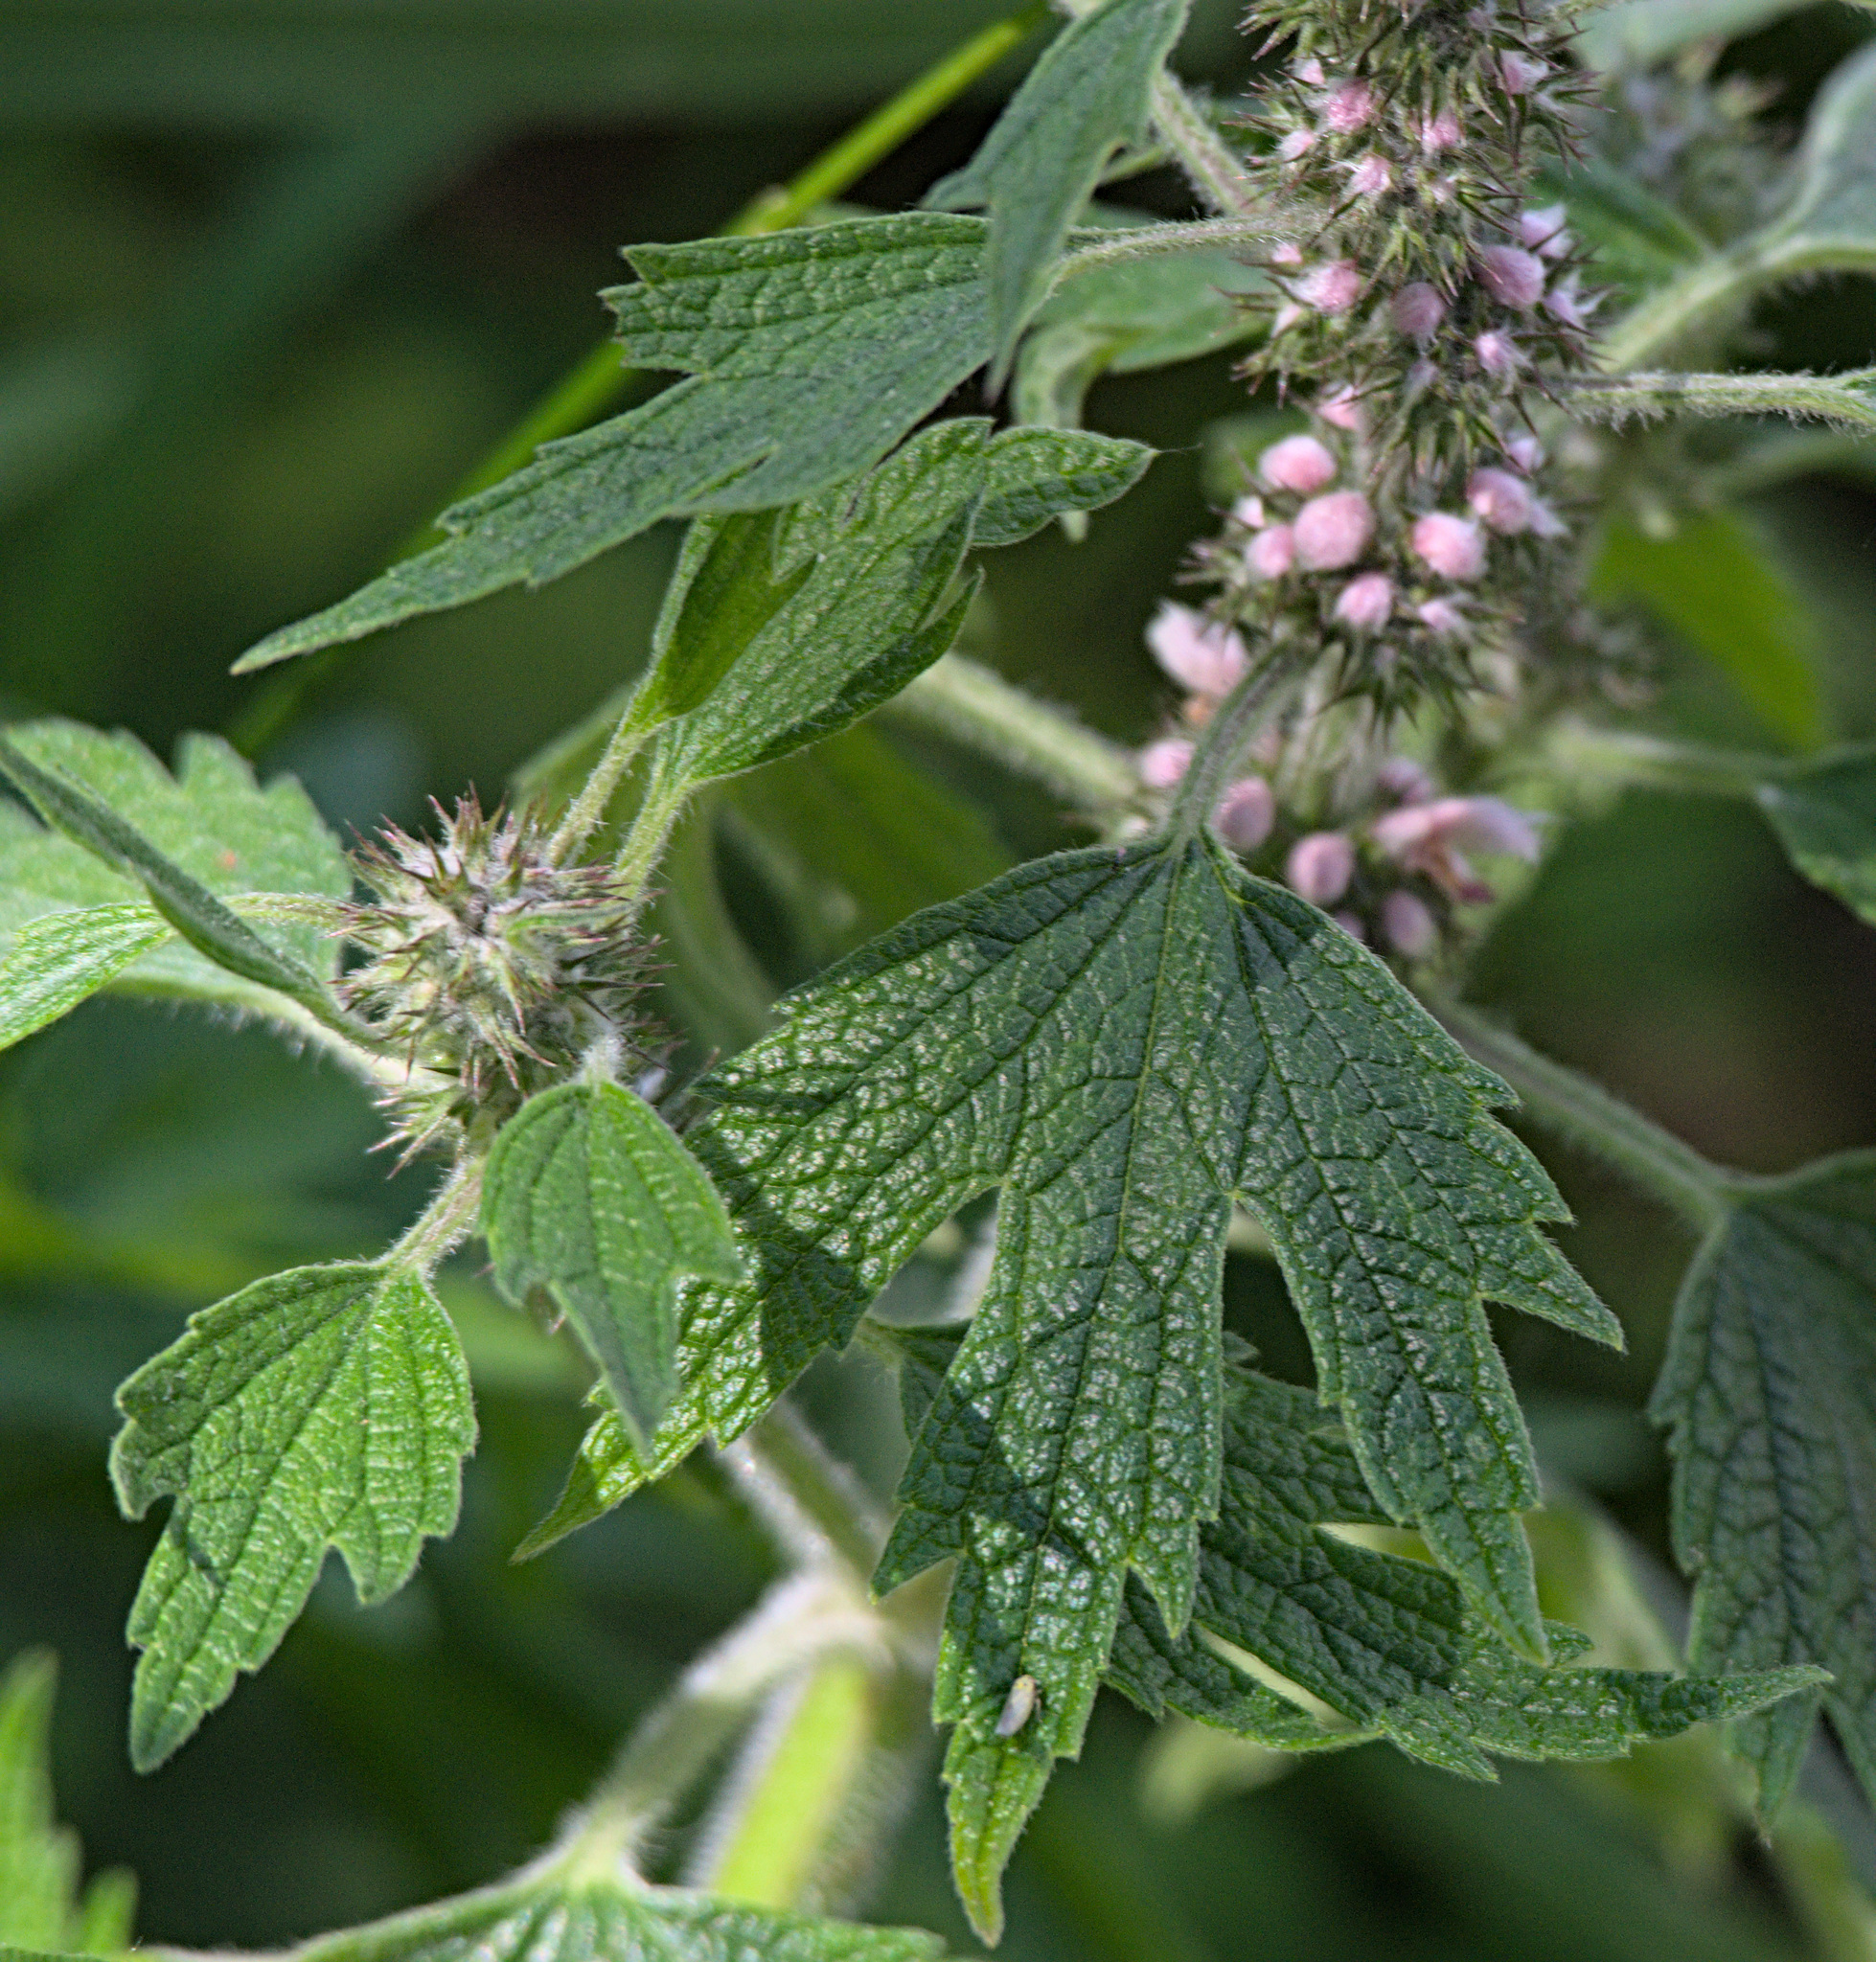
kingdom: Plantae
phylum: Tracheophyta
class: Magnoliopsida
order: Lamiales
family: Lamiaceae
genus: Leonurus
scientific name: Leonurus quinquelobatus
